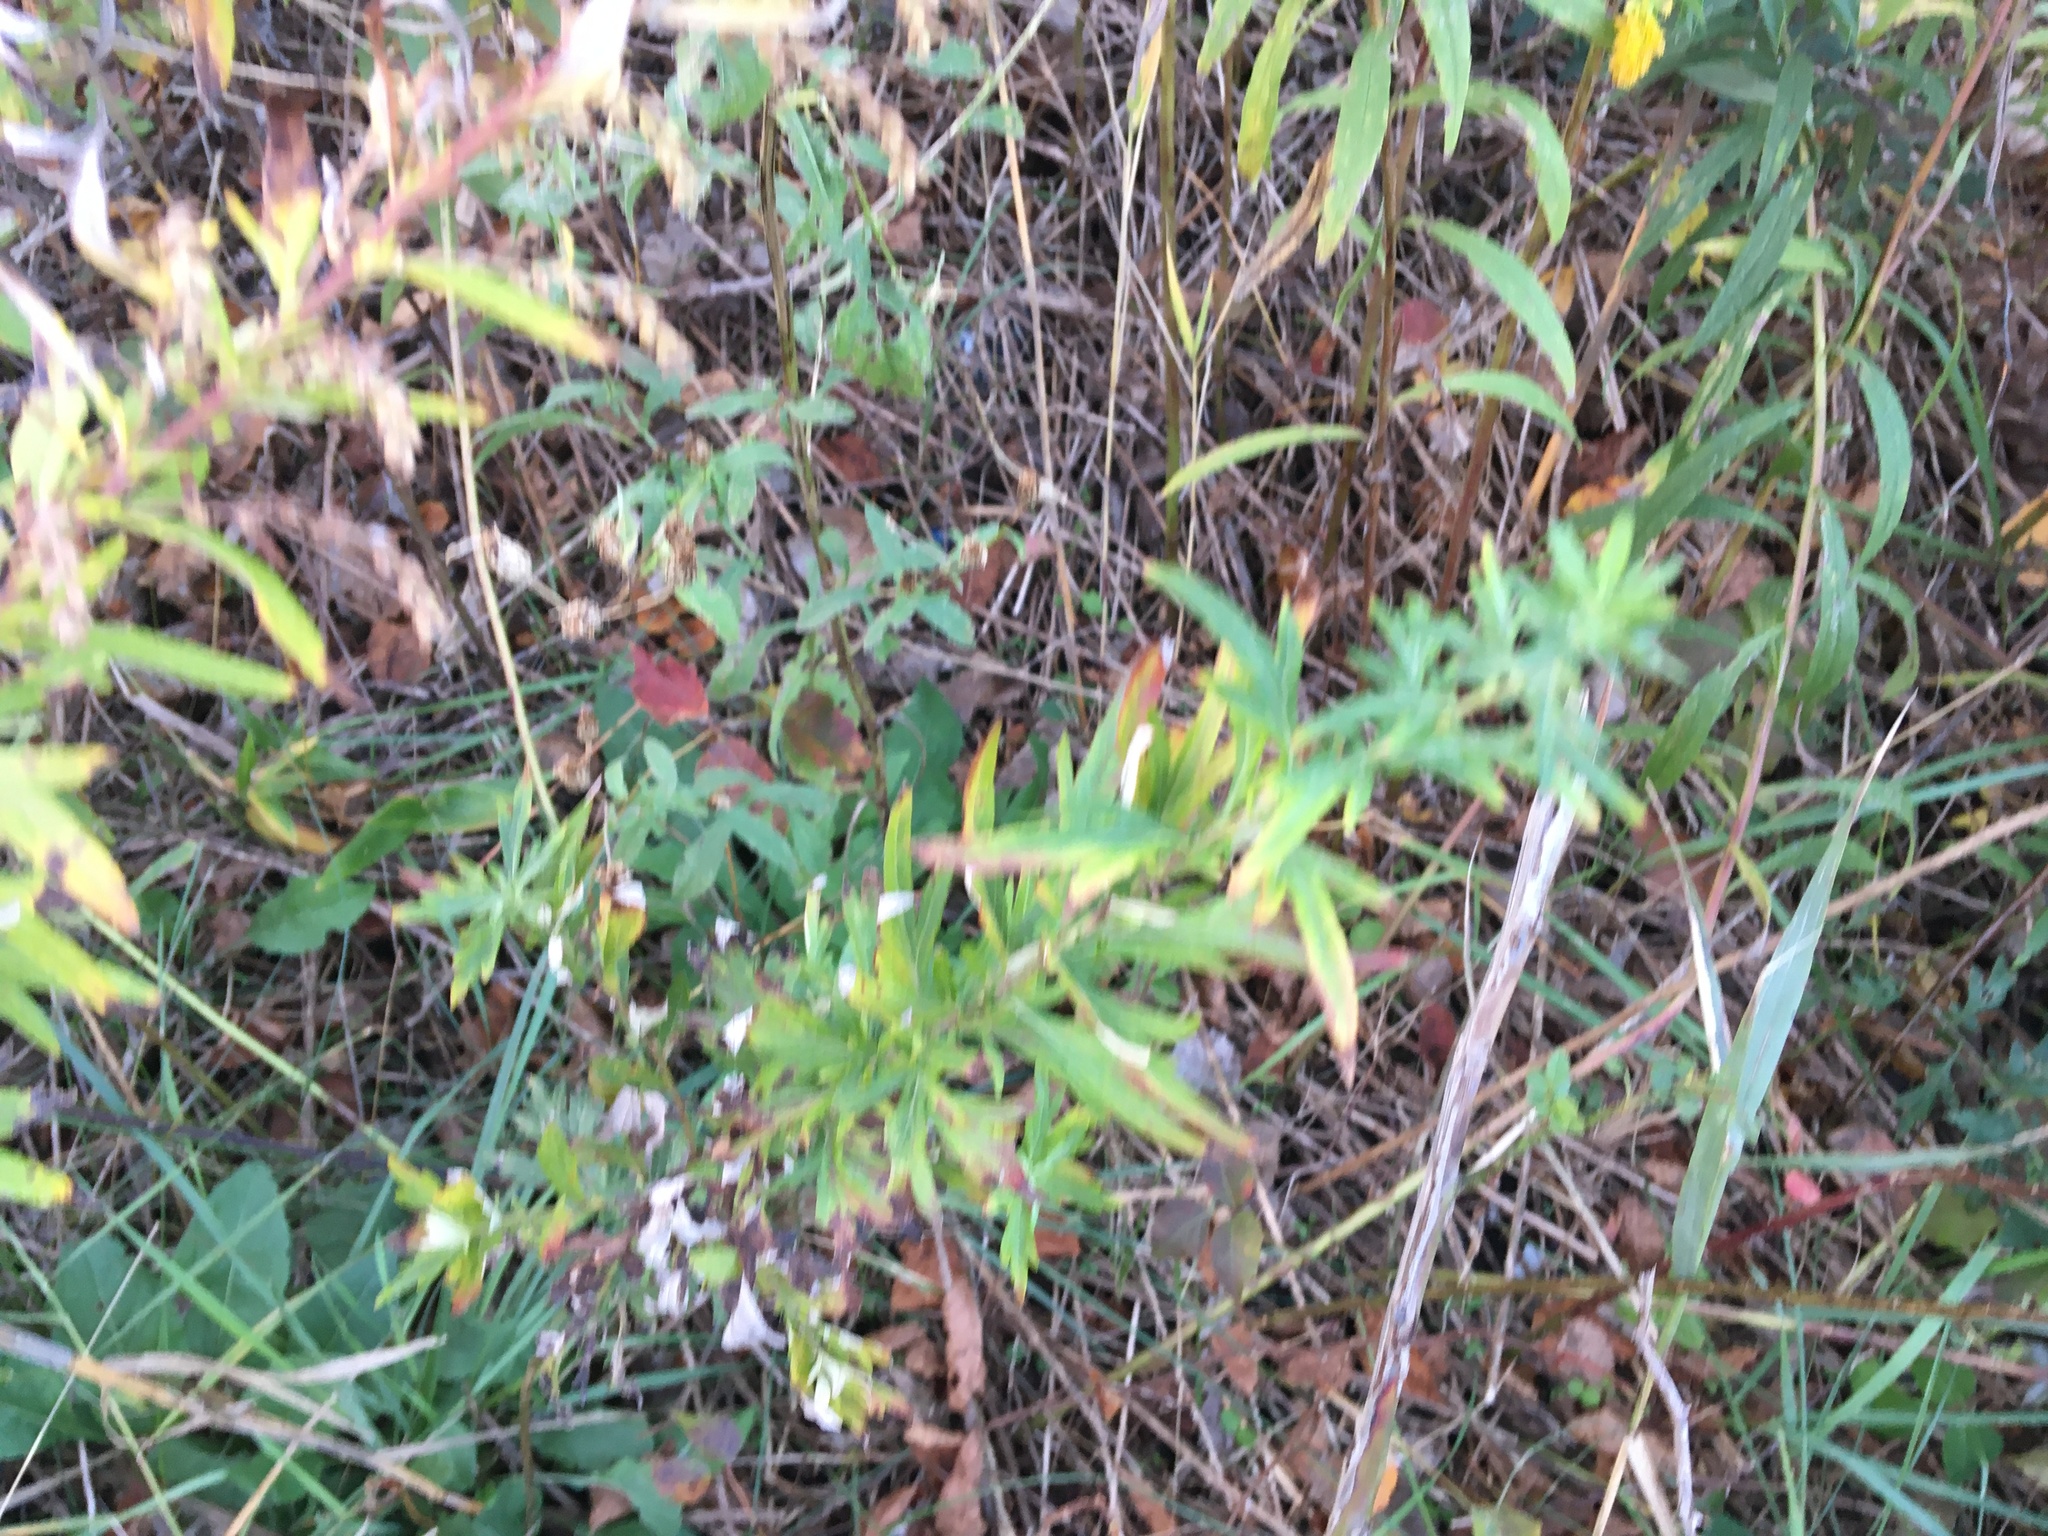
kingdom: Plantae
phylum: Tracheophyta
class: Magnoliopsida
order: Asterales
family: Asteraceae
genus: Artemisia
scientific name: Artemisia vulgaris
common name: Mugwort
